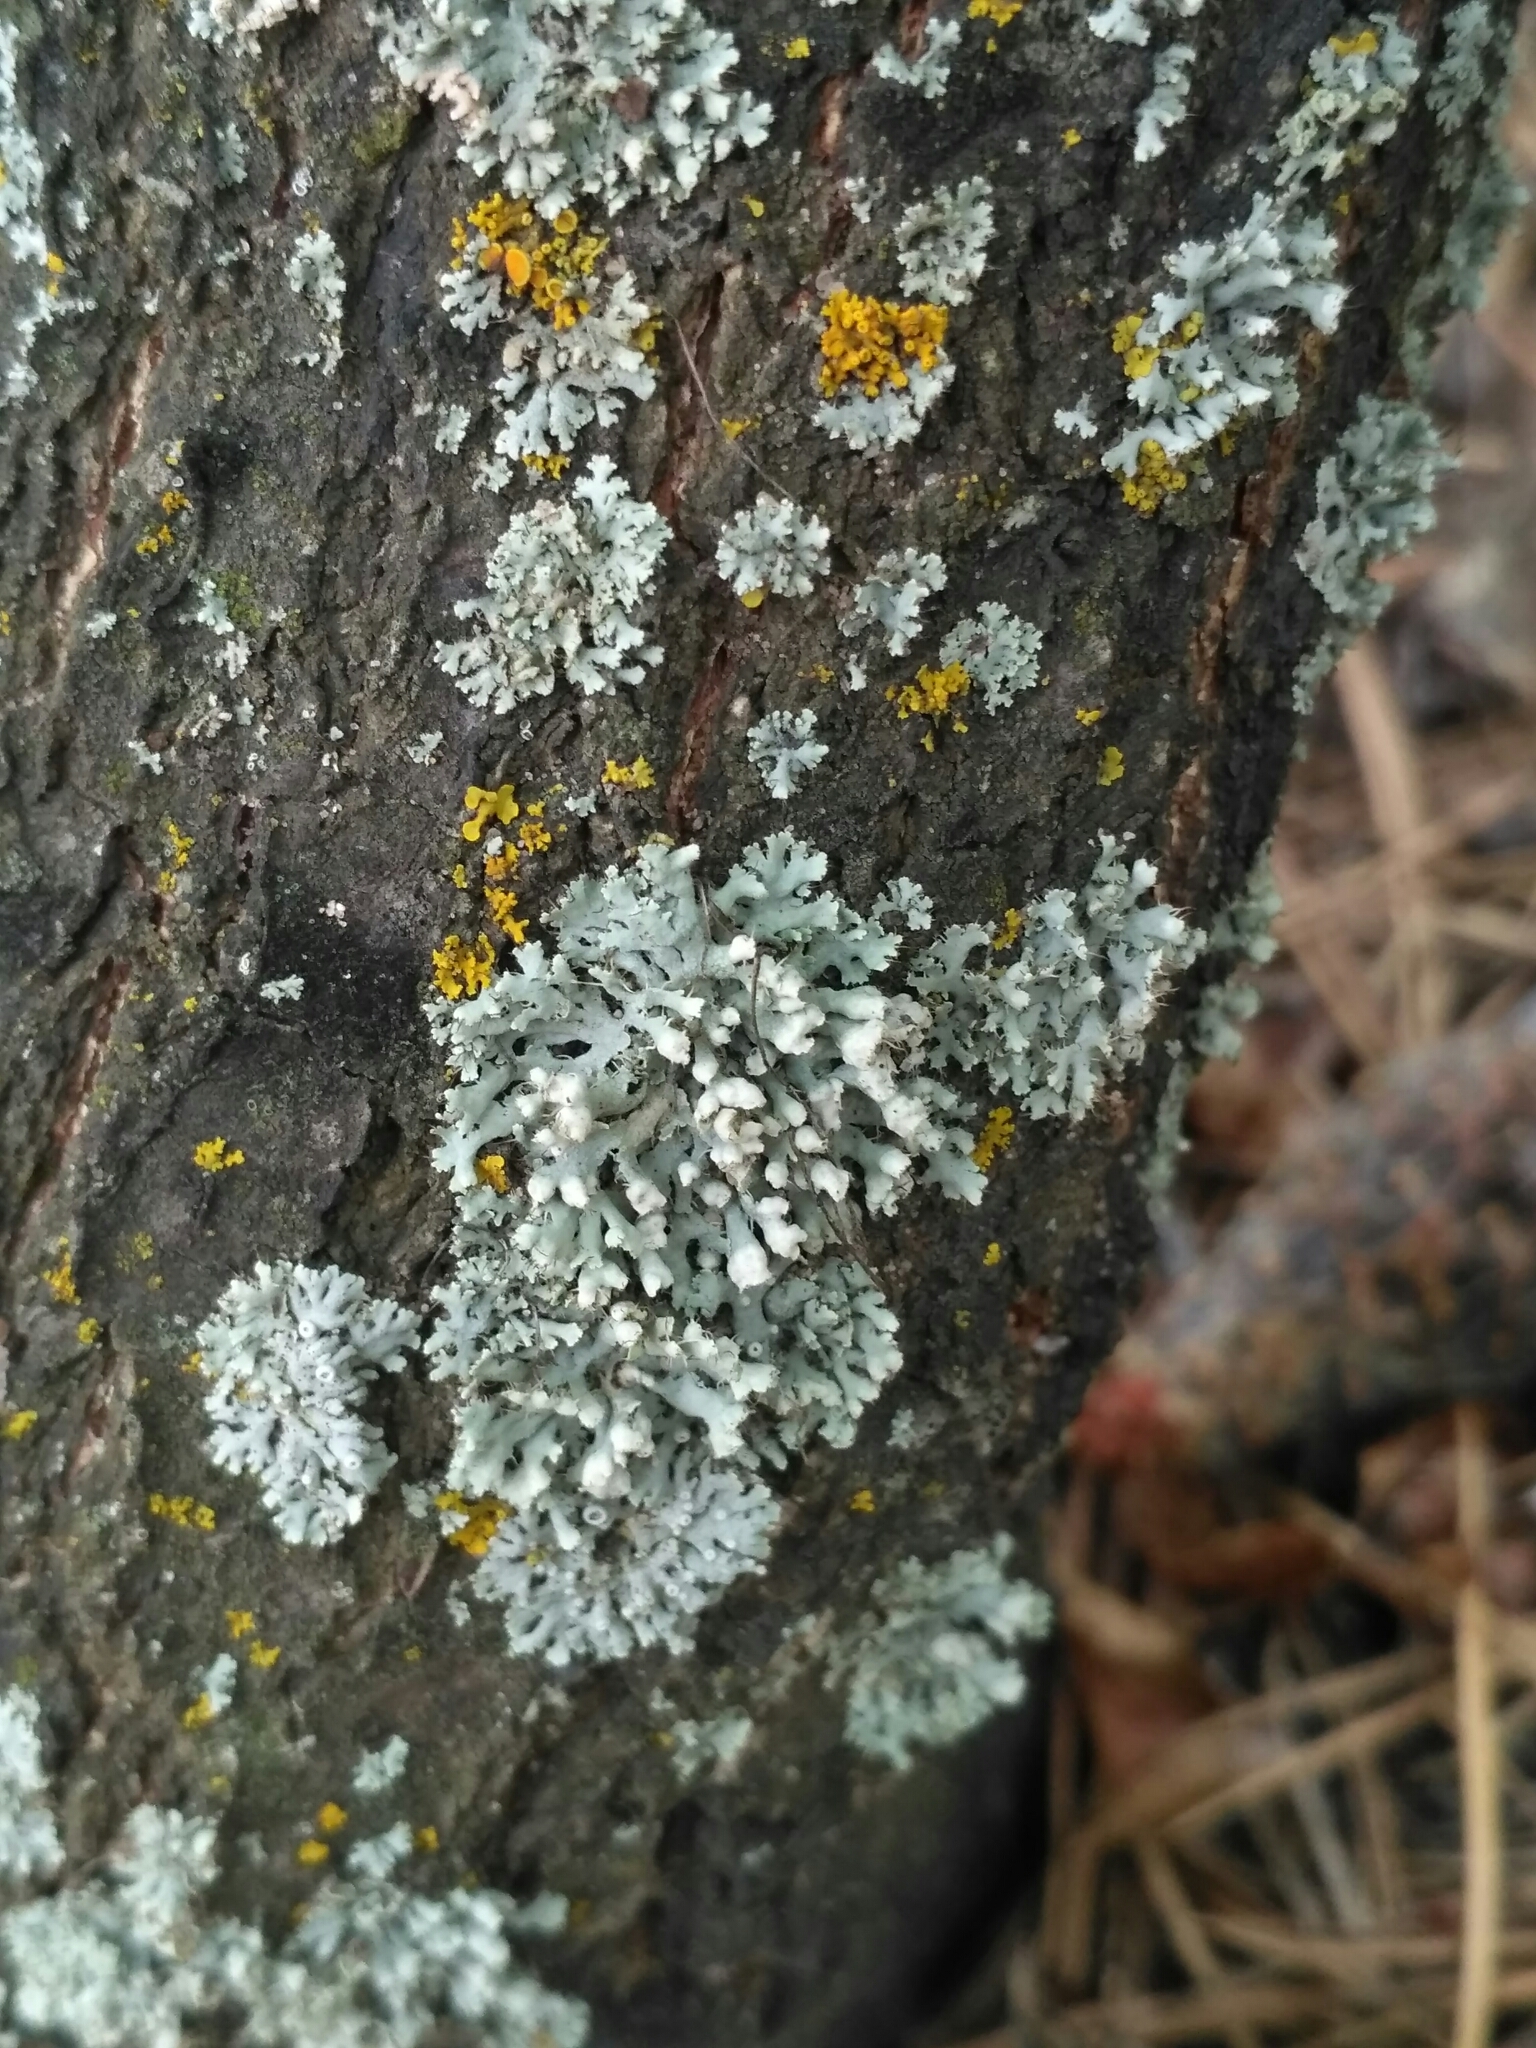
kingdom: Fungi
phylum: Ascomycota
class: Lecanoromycetes
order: Caliciales
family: Physciaceae
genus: Physcia
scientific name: Physcia adscendens
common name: Hooded rosette lichen
